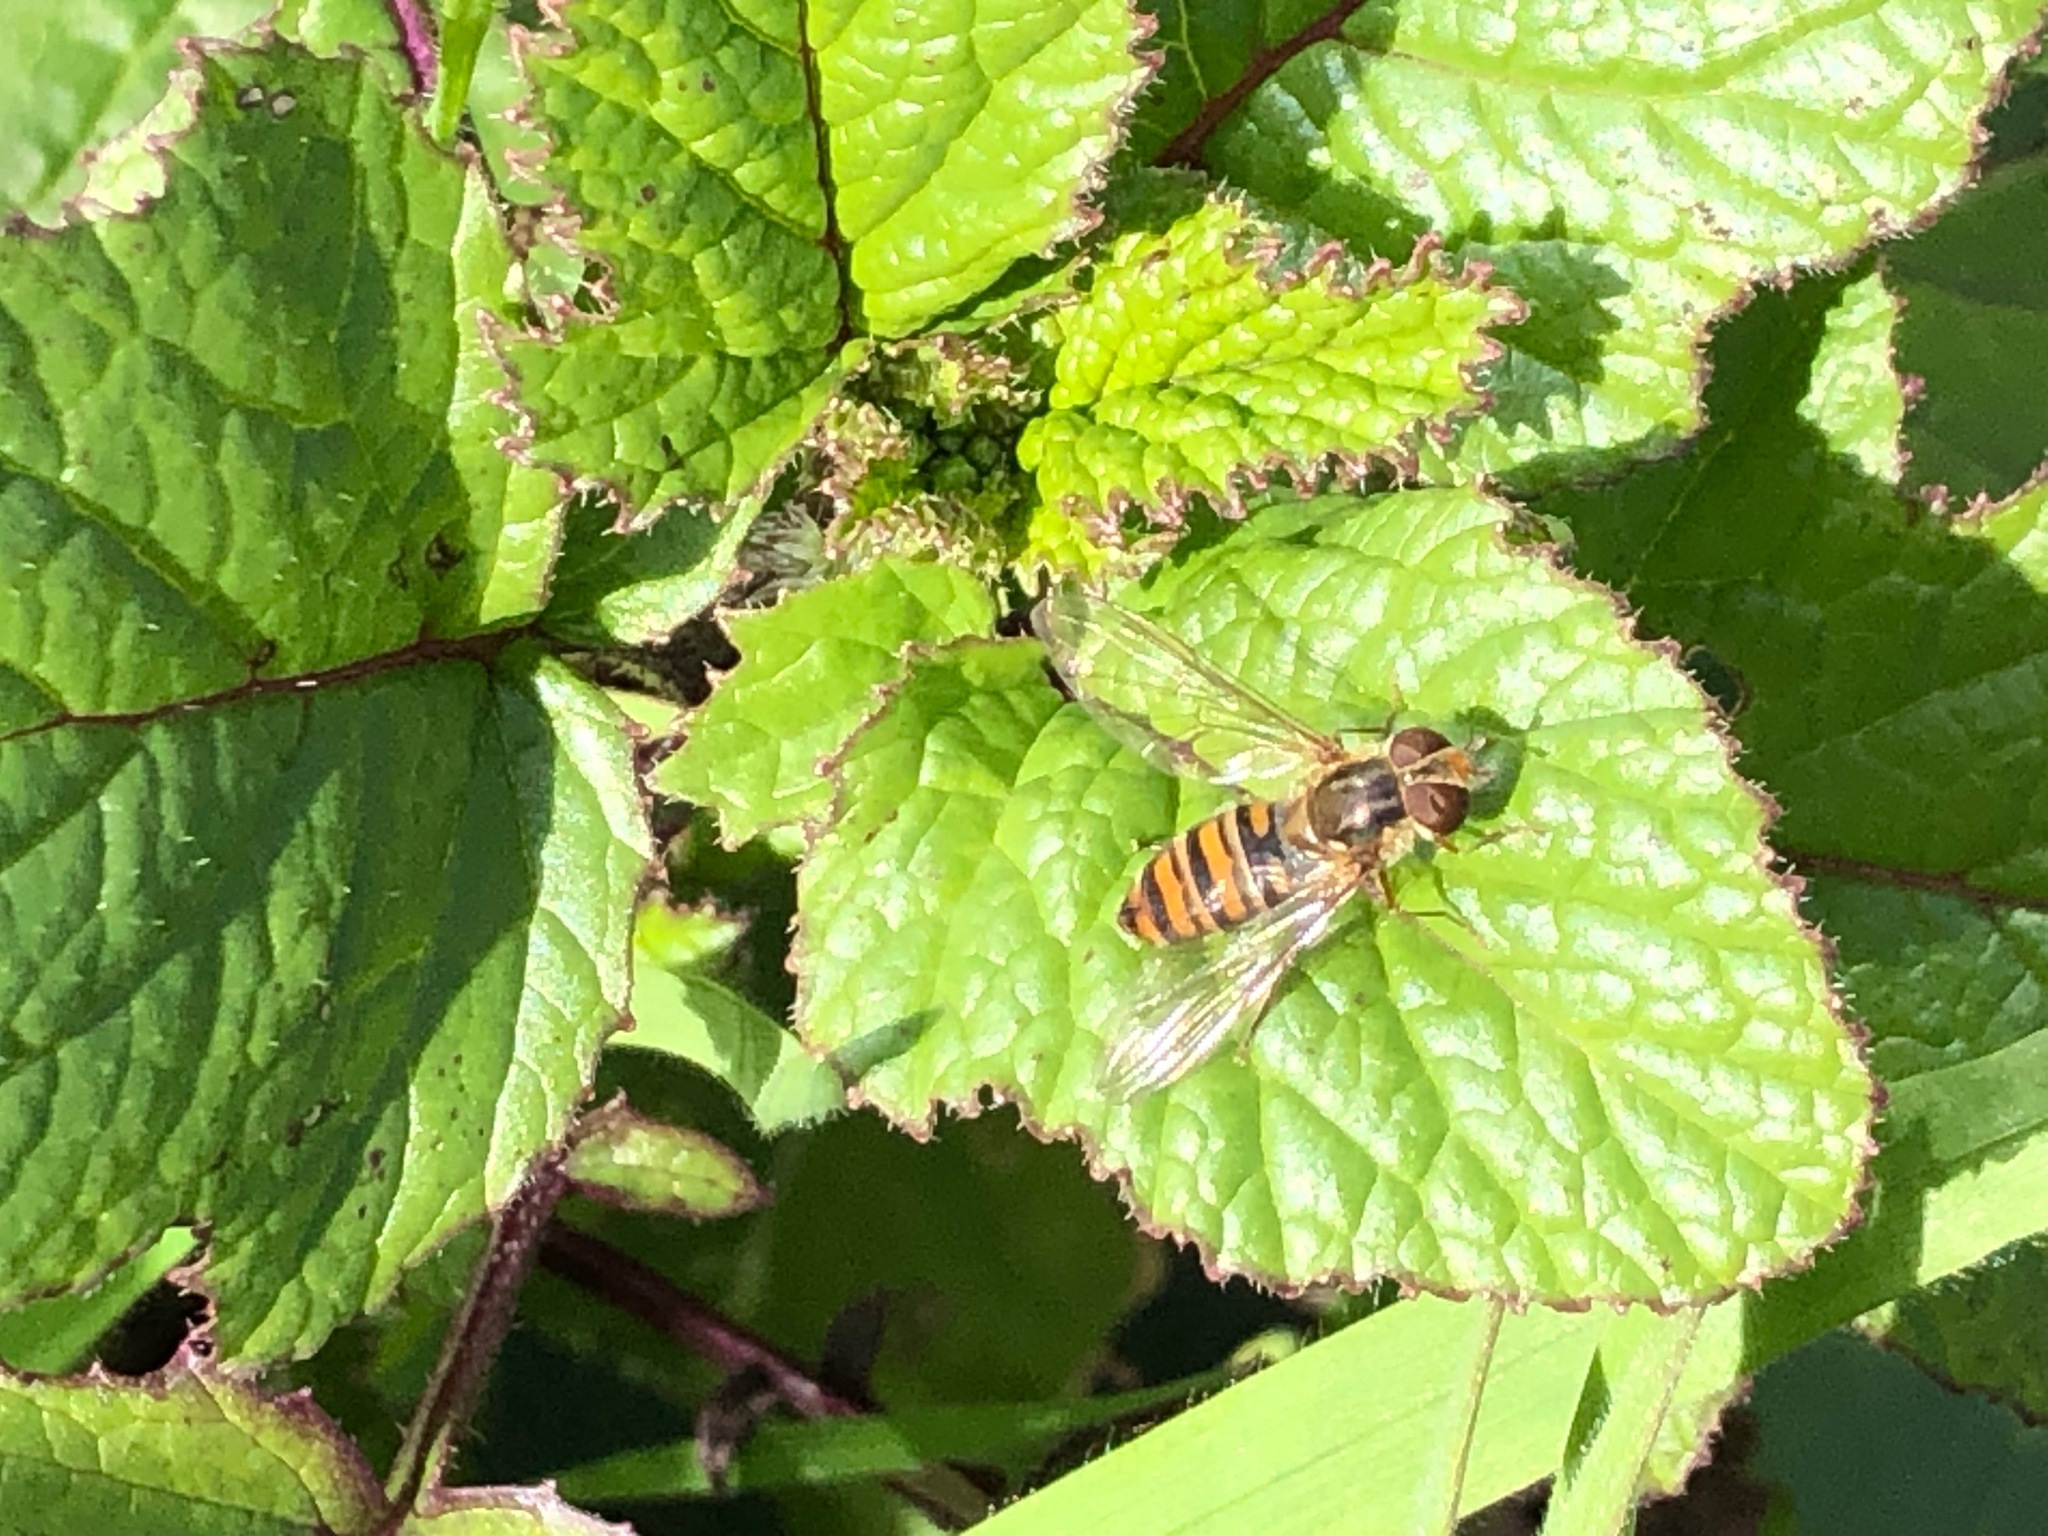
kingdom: Animalia
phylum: Arthropoda
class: Insecta
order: Diptera
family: Syrphidae
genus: Episyrphus
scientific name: Episyrphus balteatus
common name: Marmalade hoverfly
